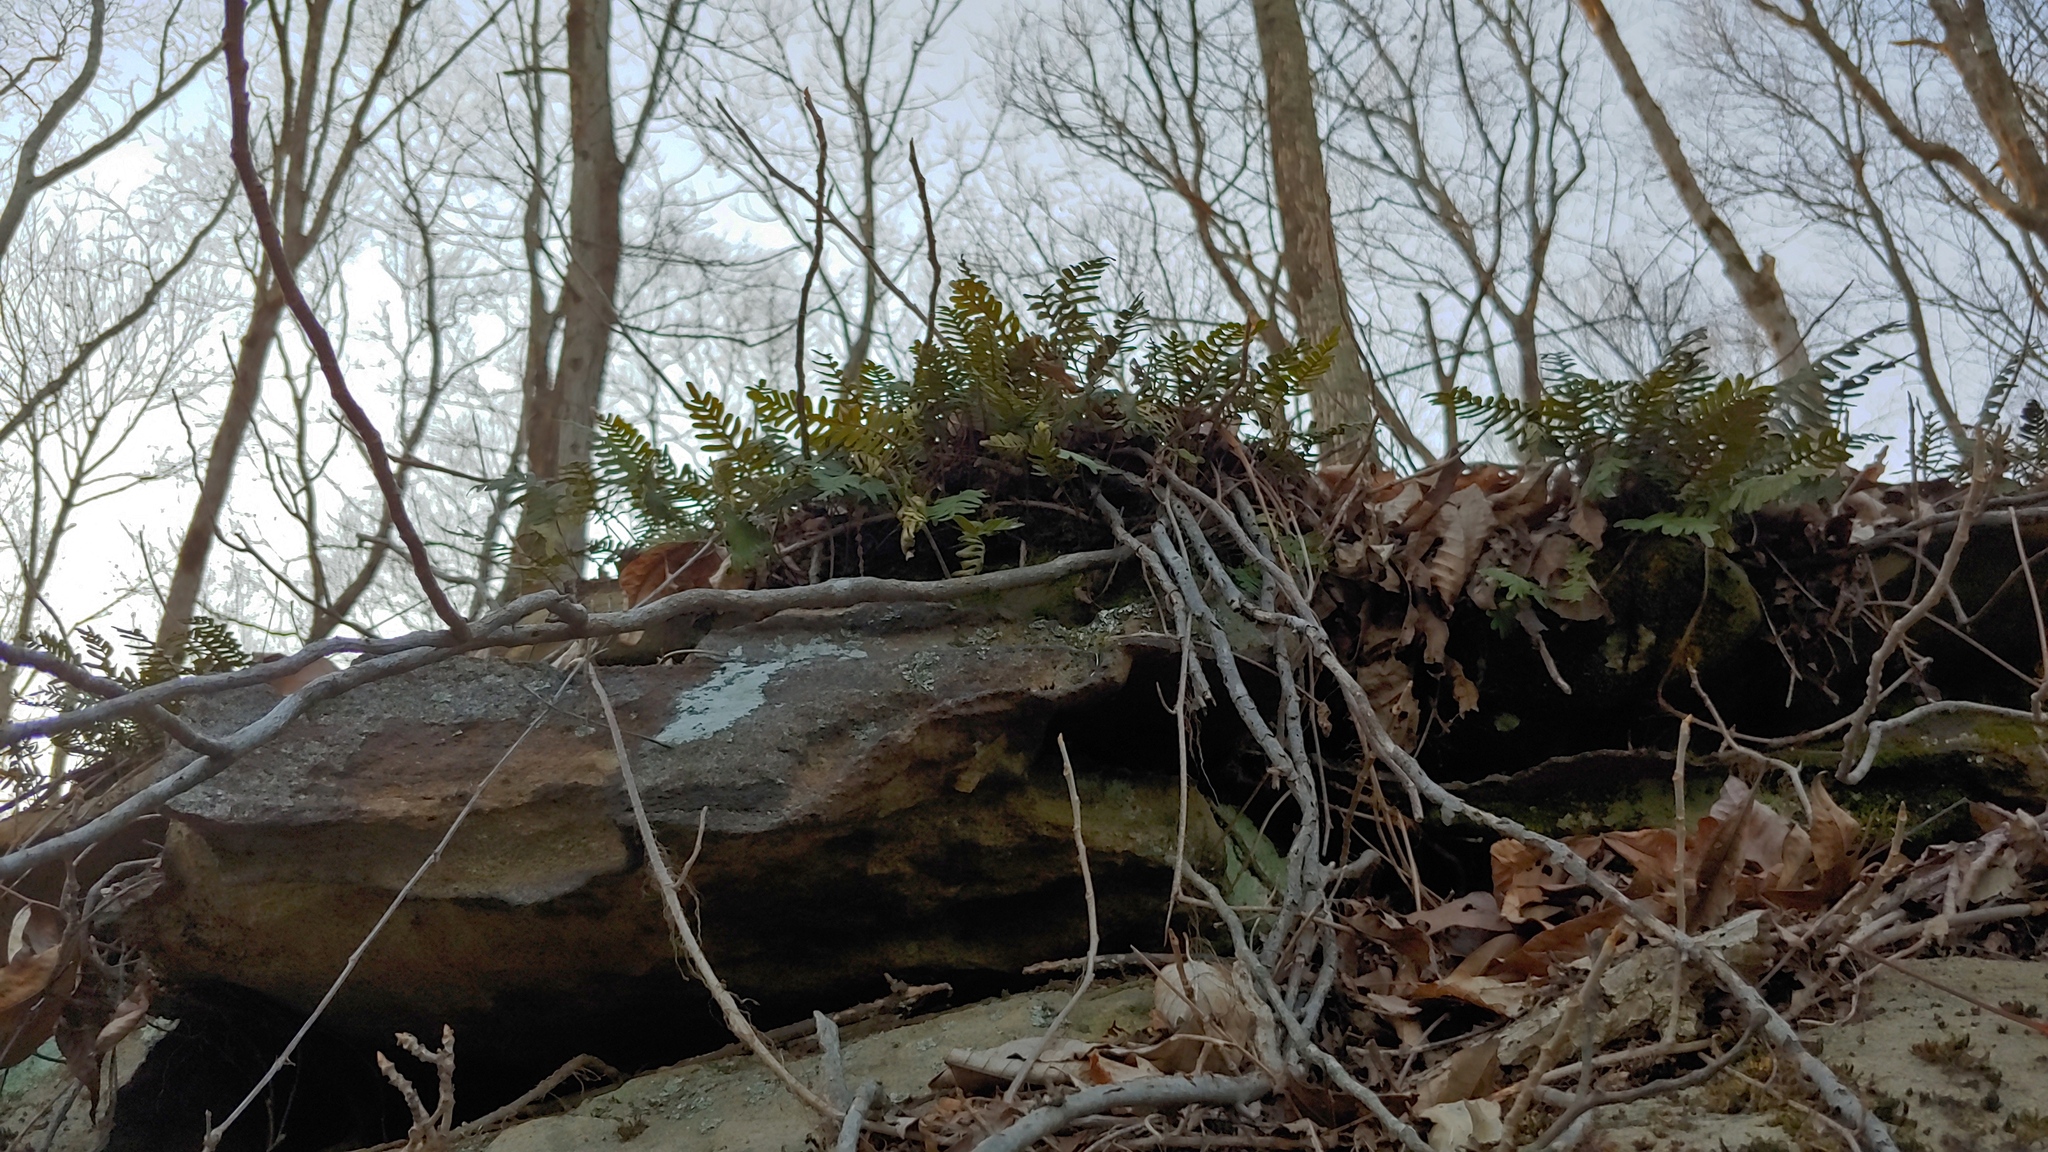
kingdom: Plantae
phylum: Tracheophyta
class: Polypodiopsida
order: Polypodiales
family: Polypodiaceae
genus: Pleopeltis
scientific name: Pleopeltis michauxiana
